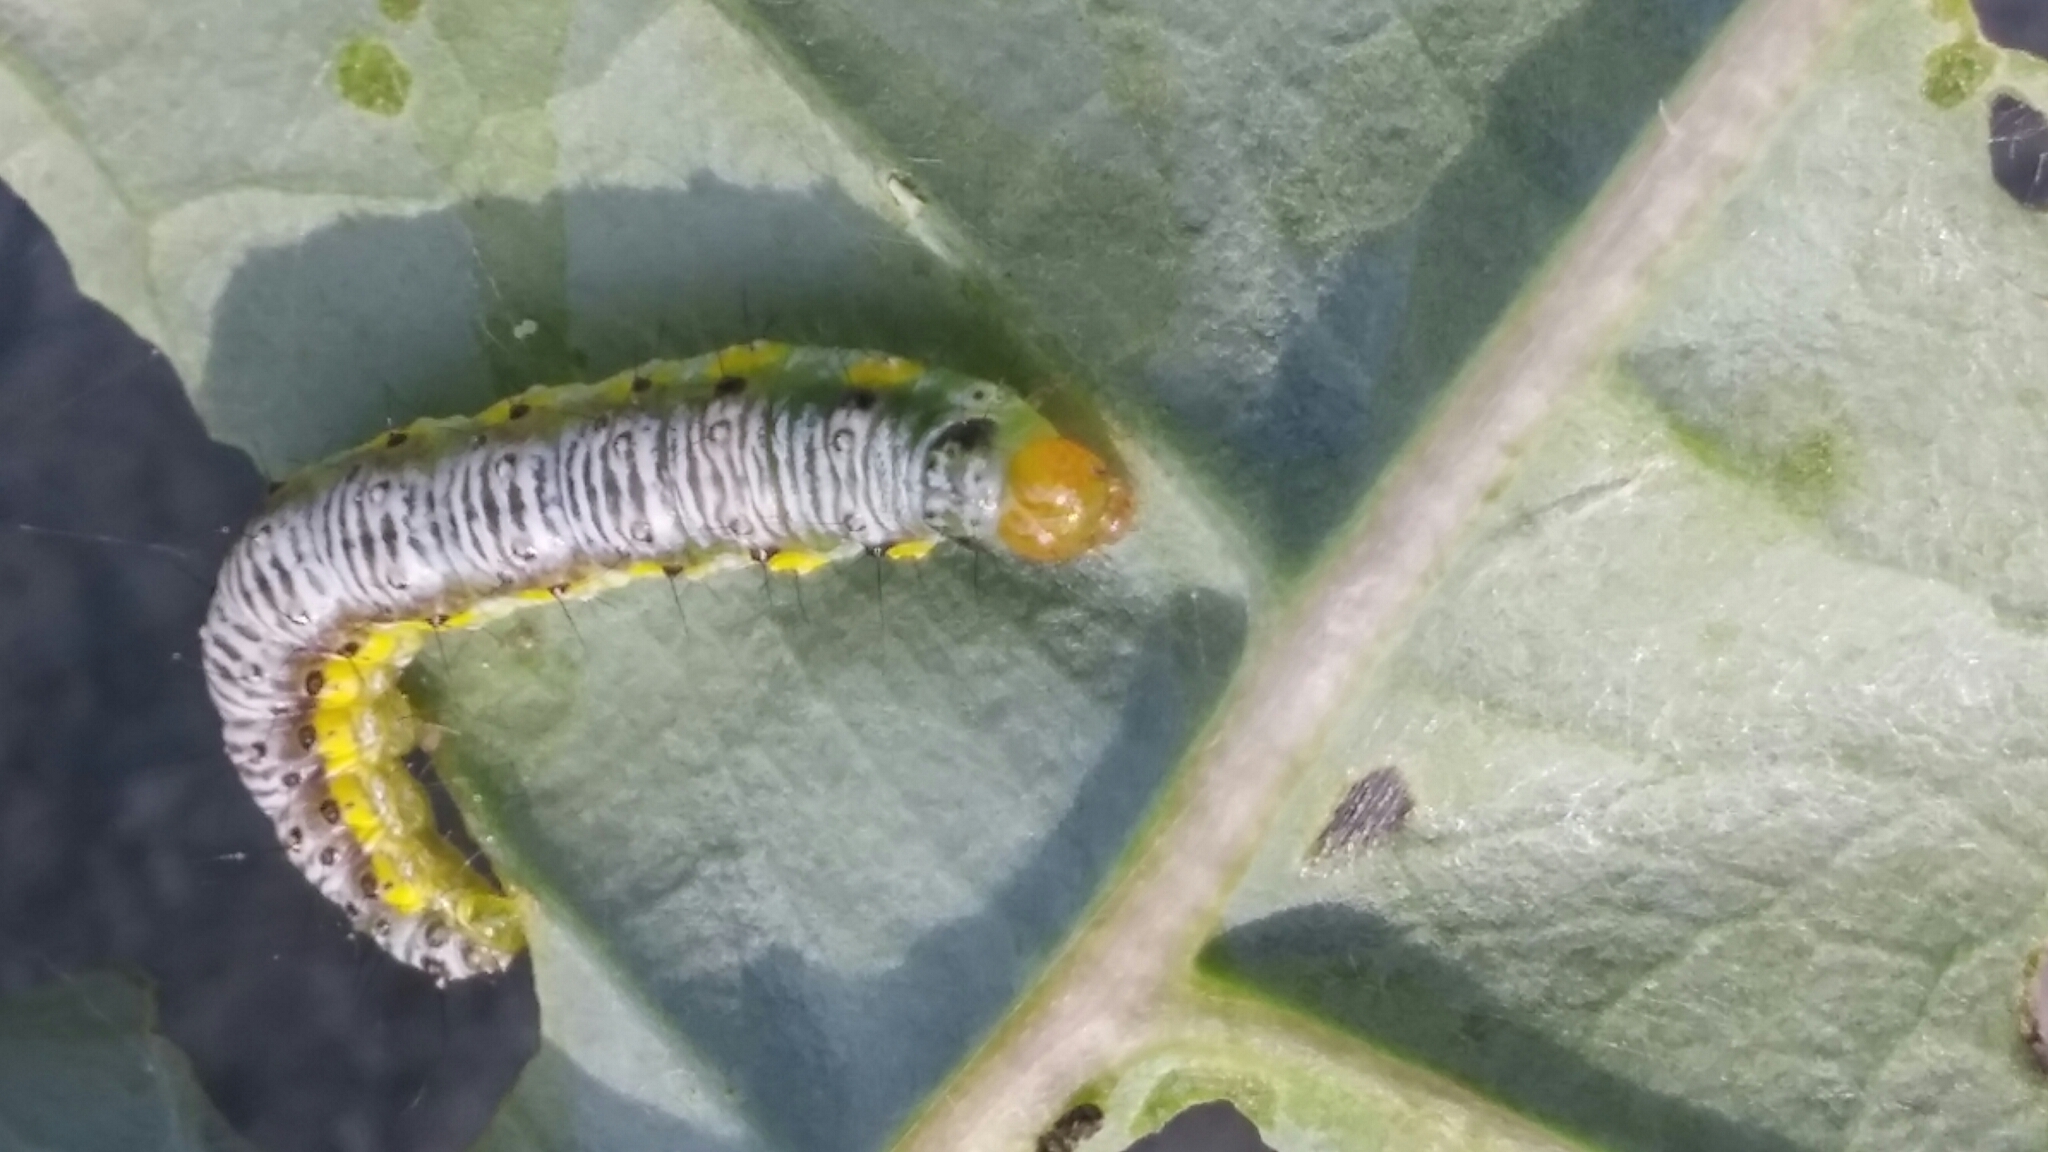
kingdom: Animalia
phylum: Arthropoda
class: Insecta
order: Lepidoptera
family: Crambidae
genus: Evergestis
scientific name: Evergestis rimosalis
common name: Cross-striped cabbageworm moth
